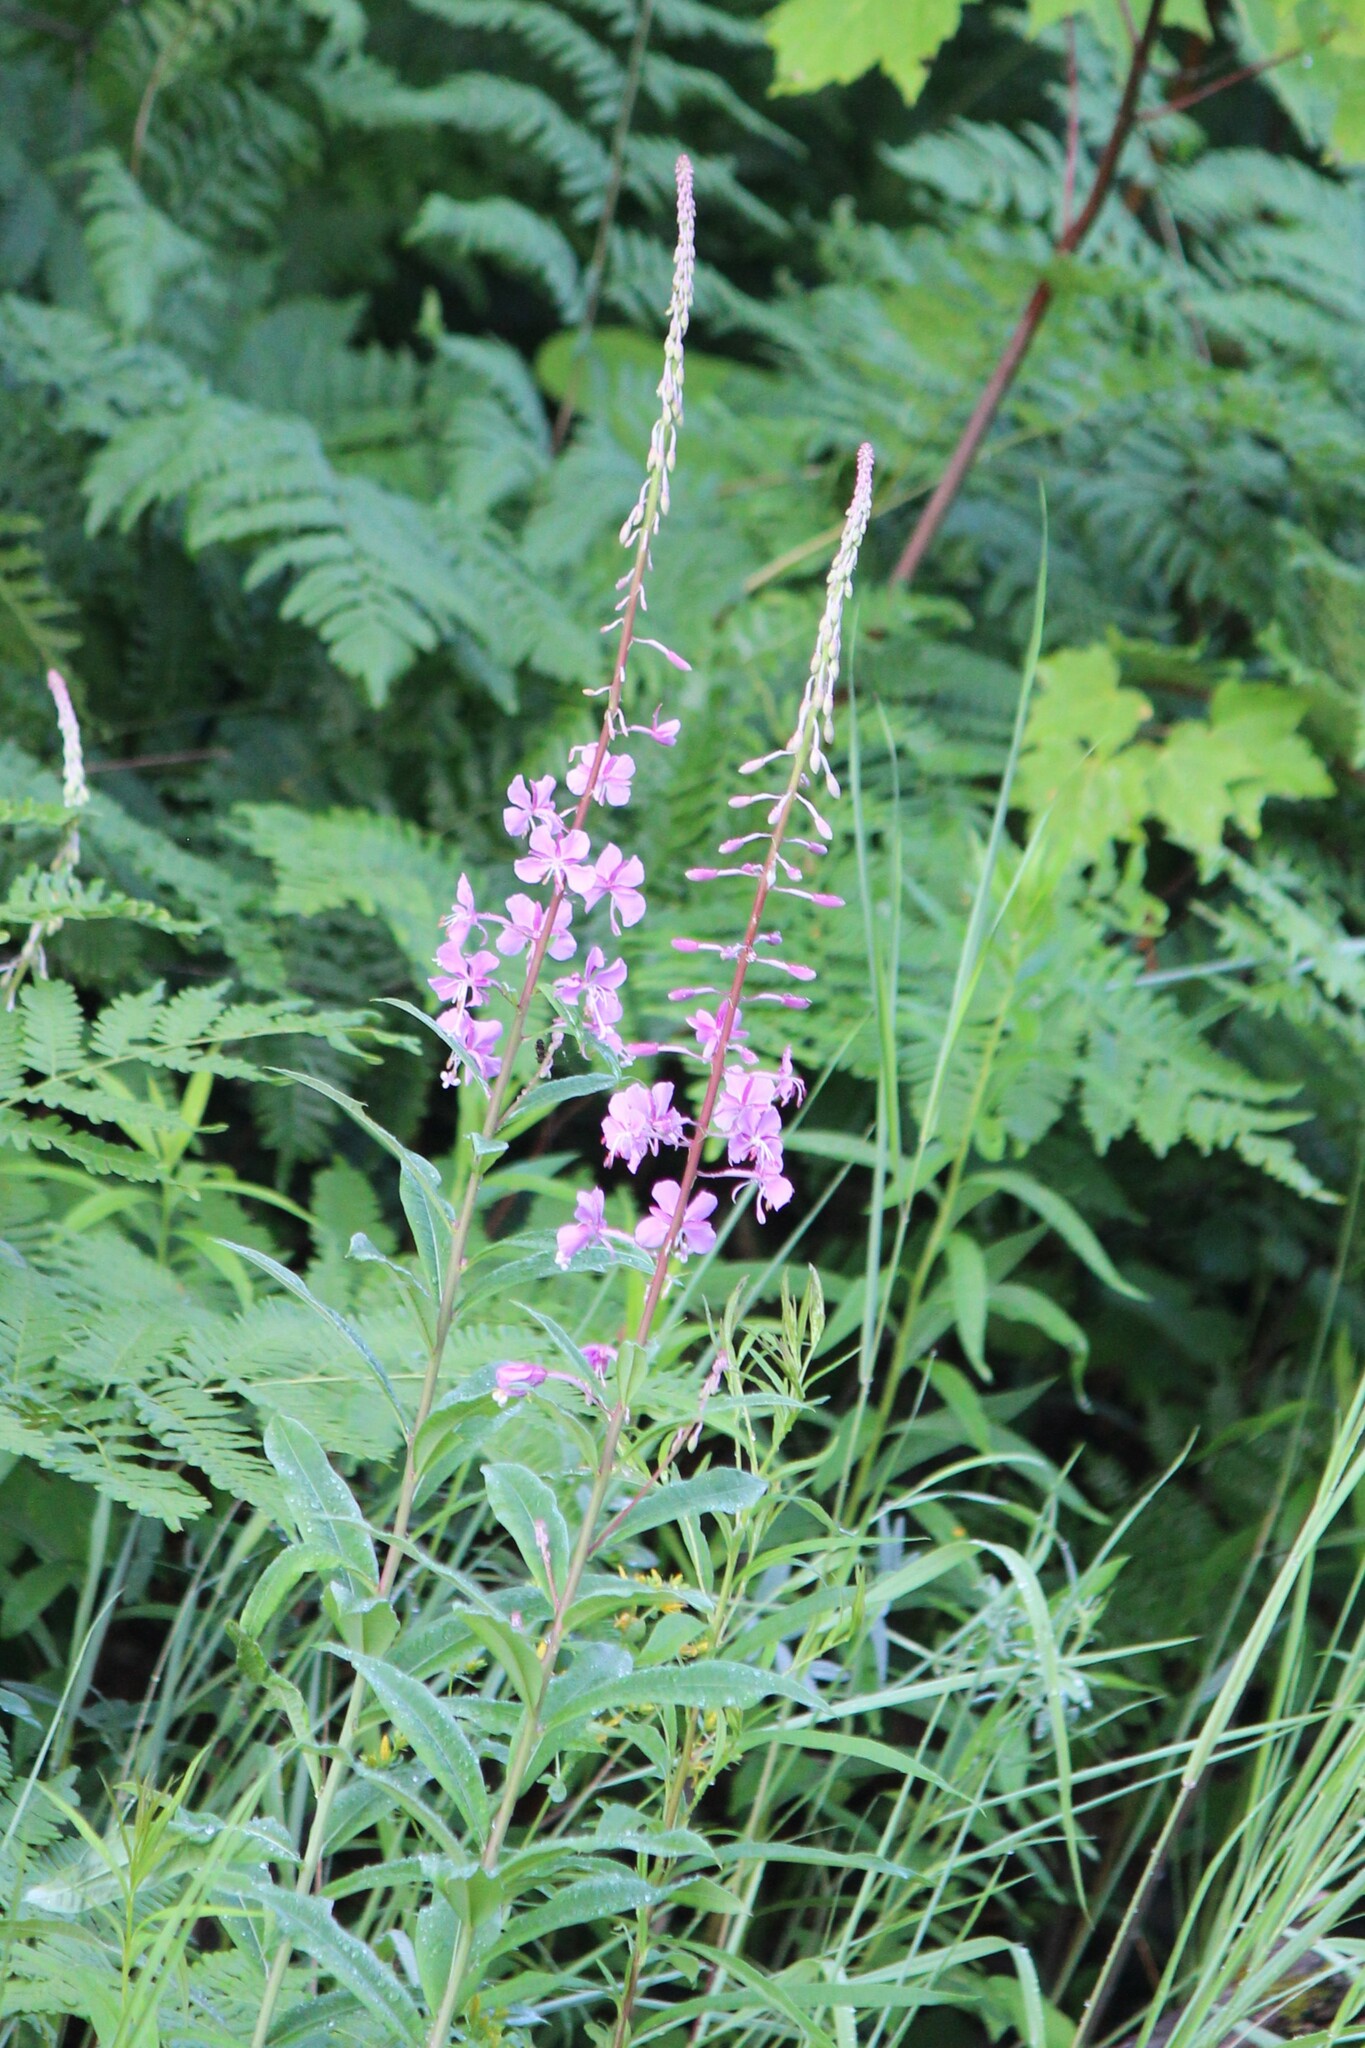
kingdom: Plantae
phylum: Tracheophyta
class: Magnoliopsida
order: Myrtales
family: Onagraceae
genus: Chamaenerion
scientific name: Chamaenerion angustifolium
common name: Fireweed
